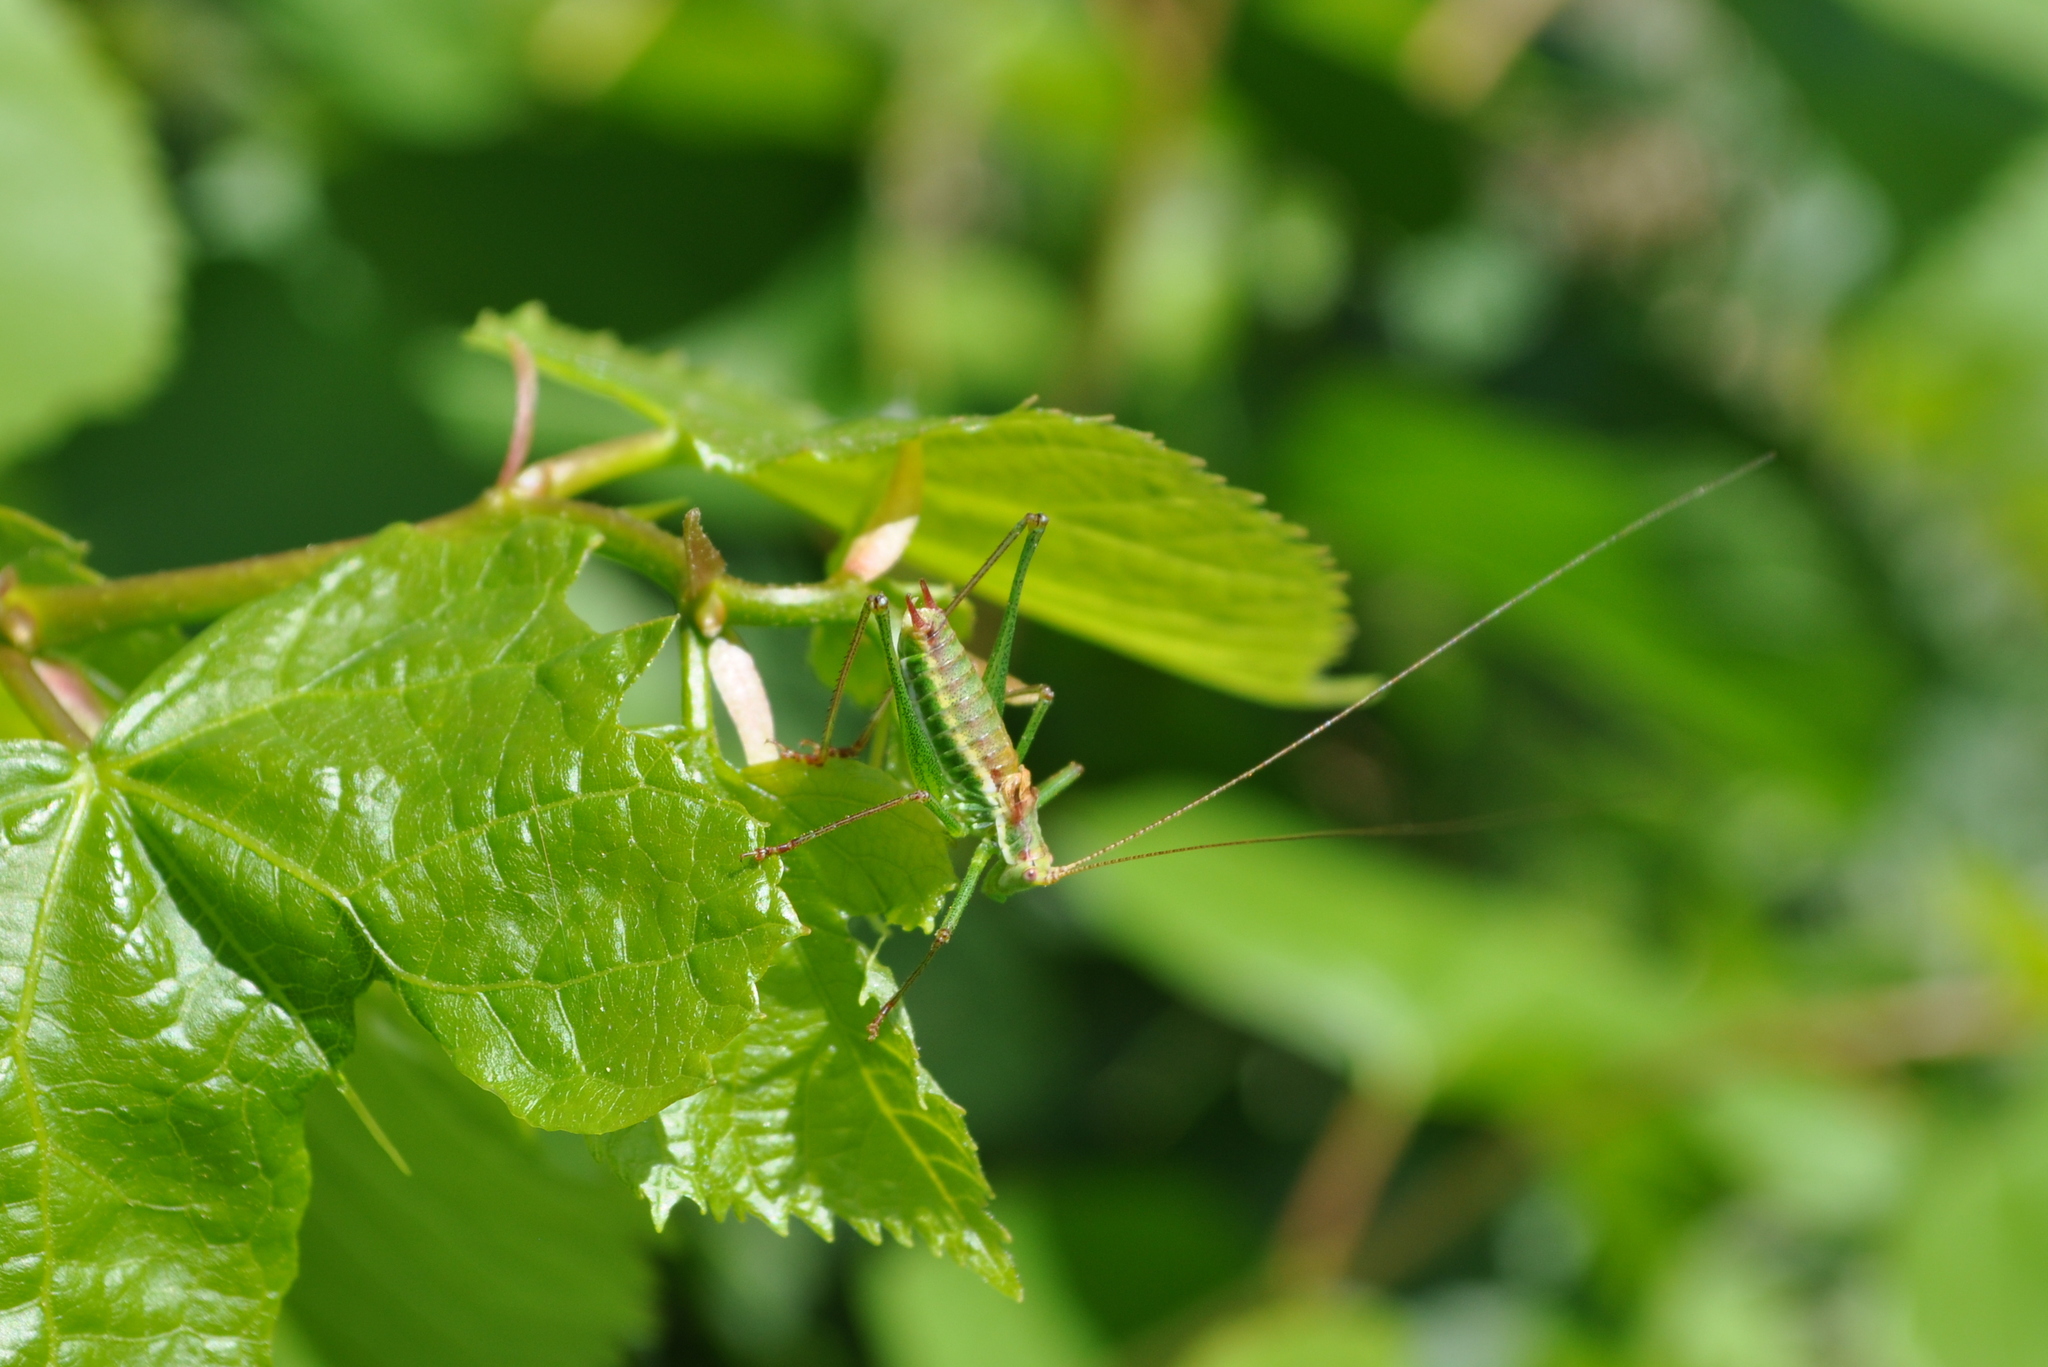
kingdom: Animalia
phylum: Arthropoda
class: Insecta
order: Orthoptera
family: Tettigoniidae
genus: Leptophyes
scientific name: Leptophyes albovittata
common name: Striped bush-cricket
